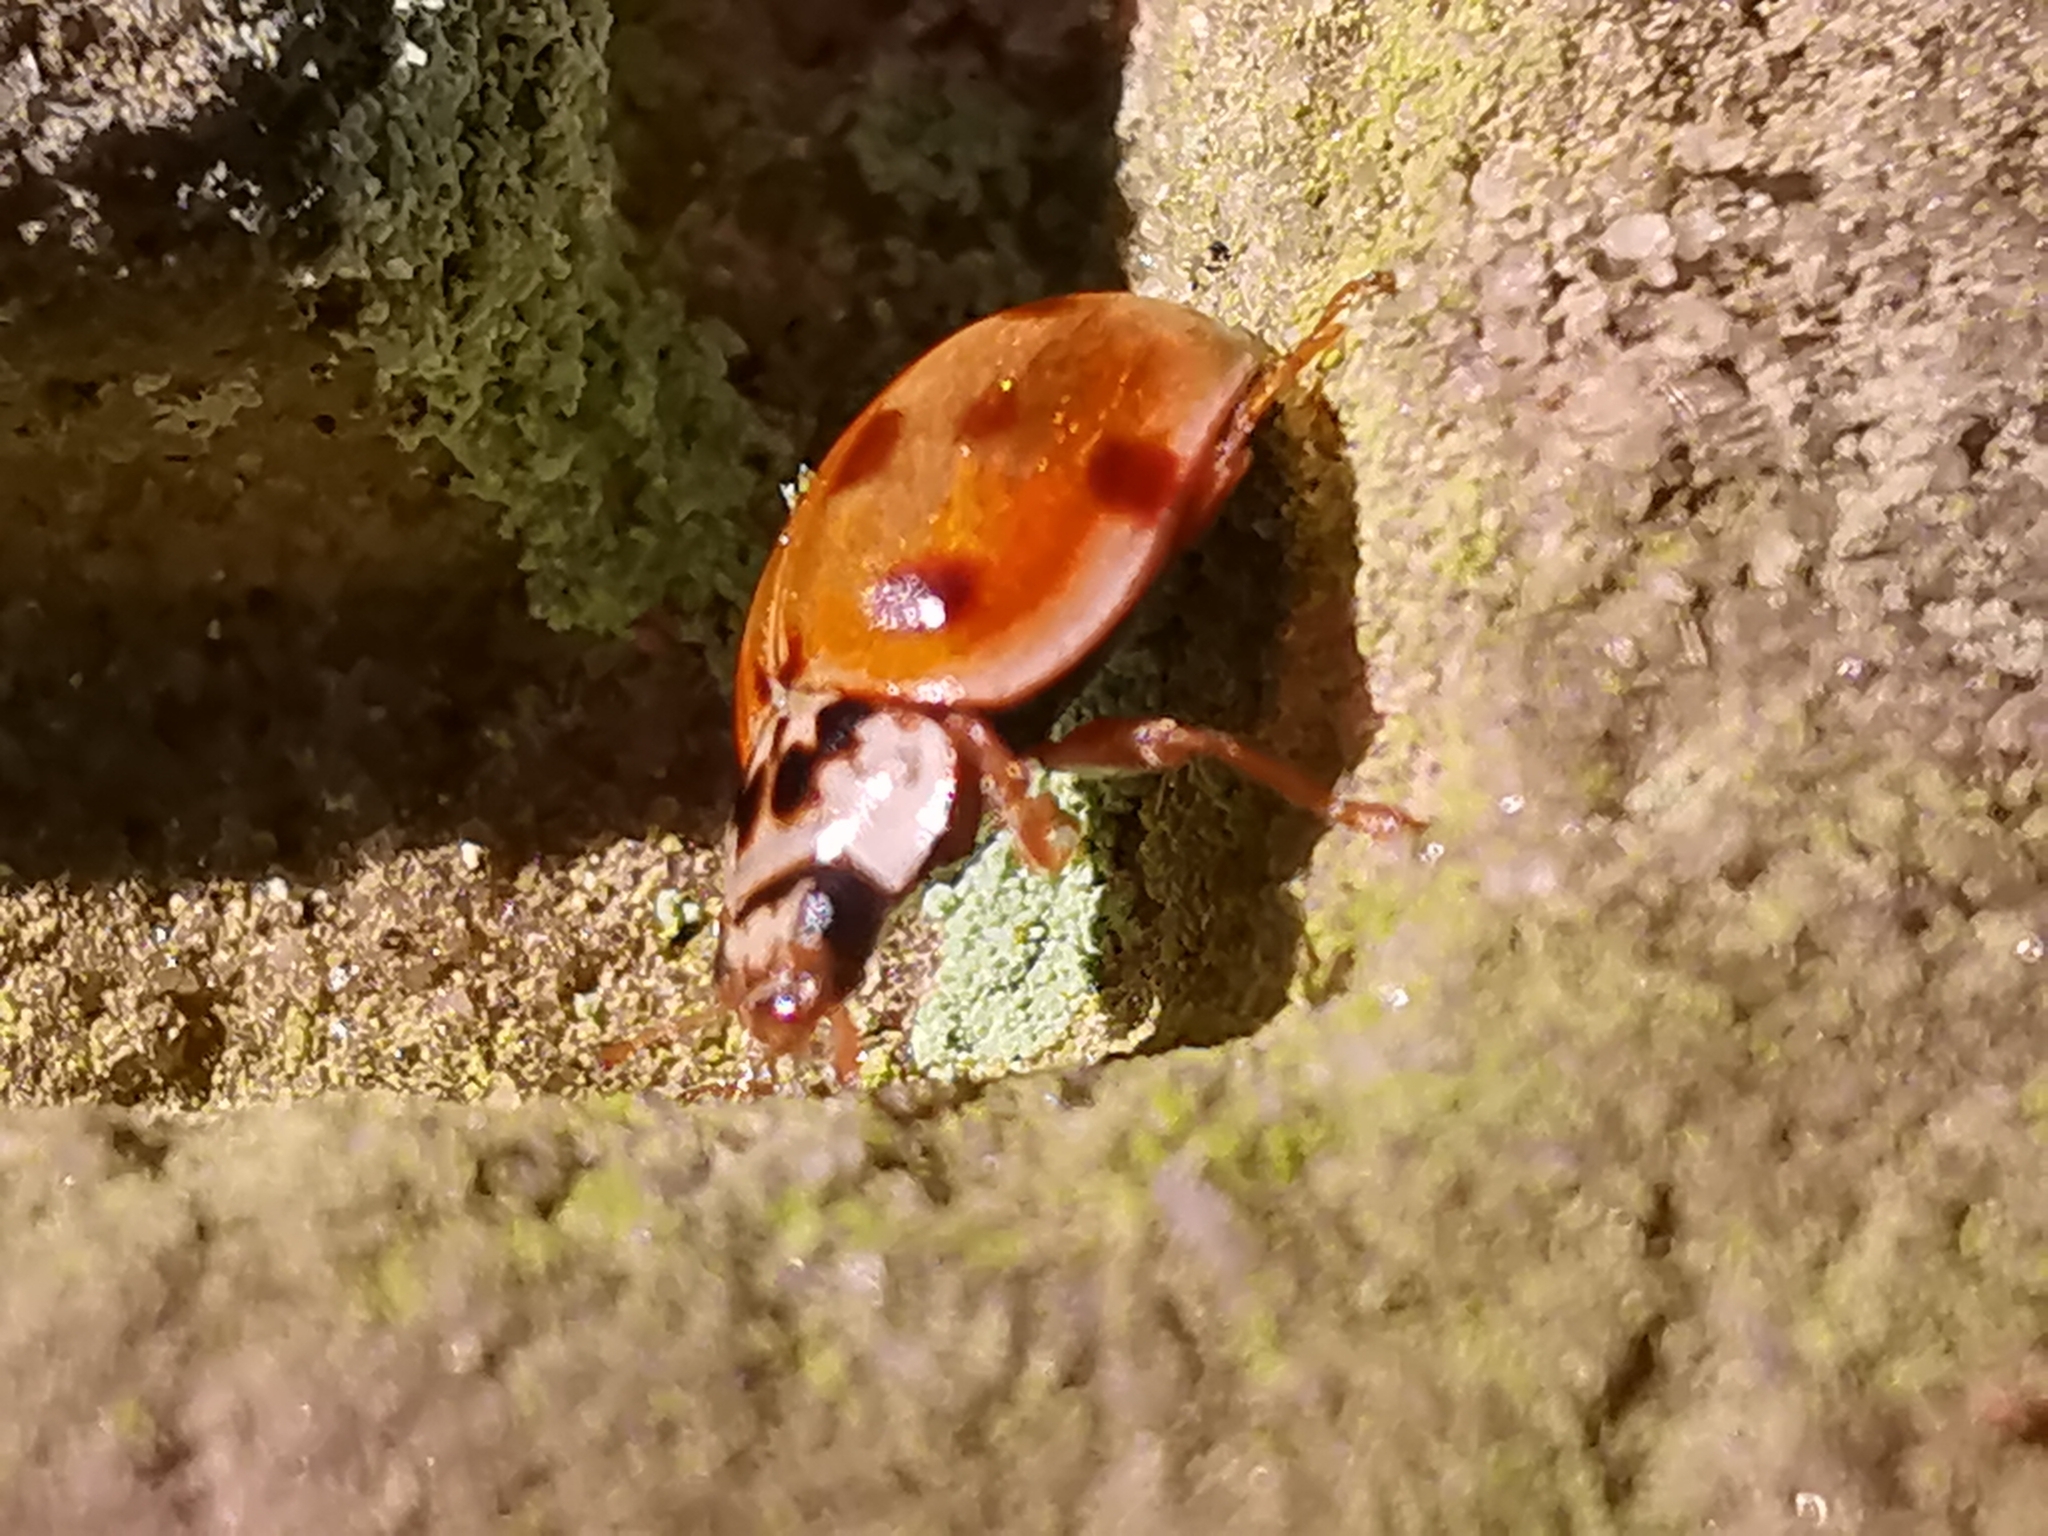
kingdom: Animalia
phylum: Arthropoda
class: Insecta
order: Coleoptera
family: Coccinellidae
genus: Adalia
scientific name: Adalia decempunctata
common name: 10-spot ladybird
